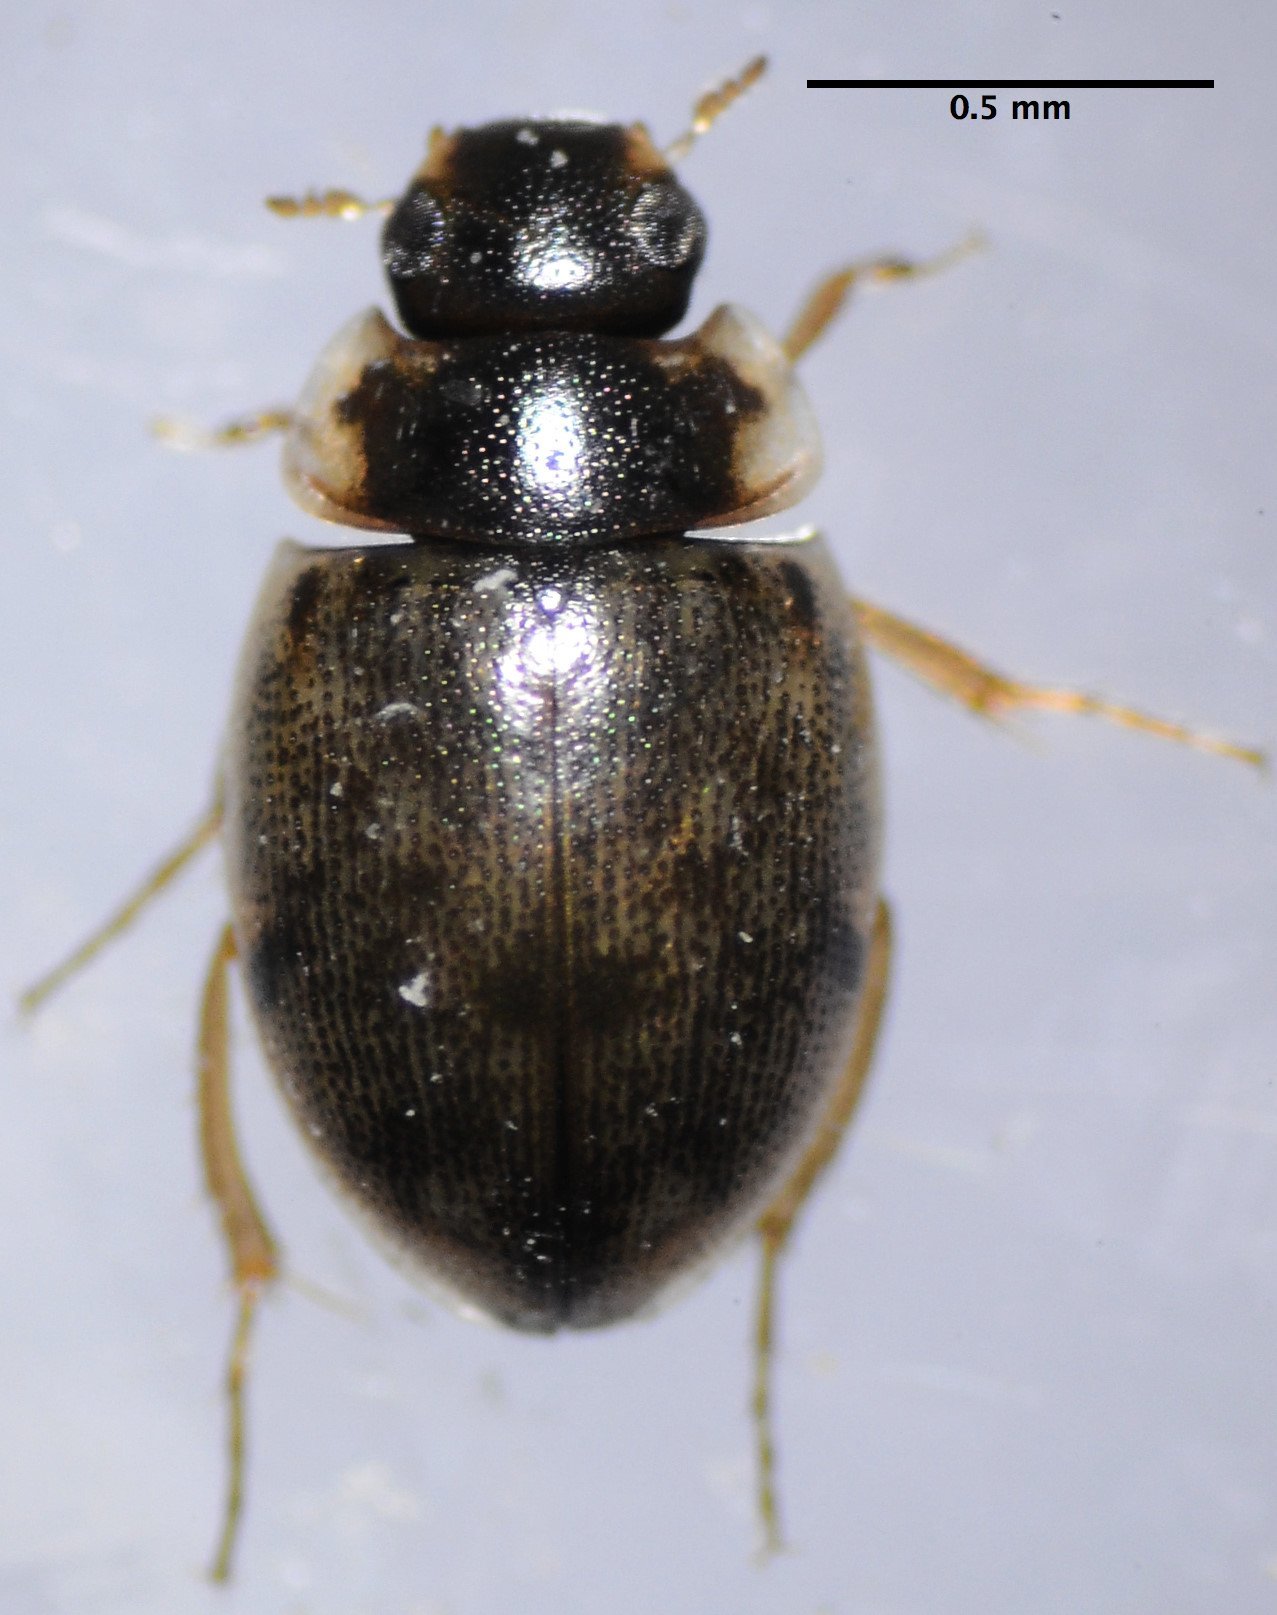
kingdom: Animalia
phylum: Arthropoda
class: Insecta
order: Coleoptera
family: Hydrophilidae
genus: Laccobius
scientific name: Laccobius
